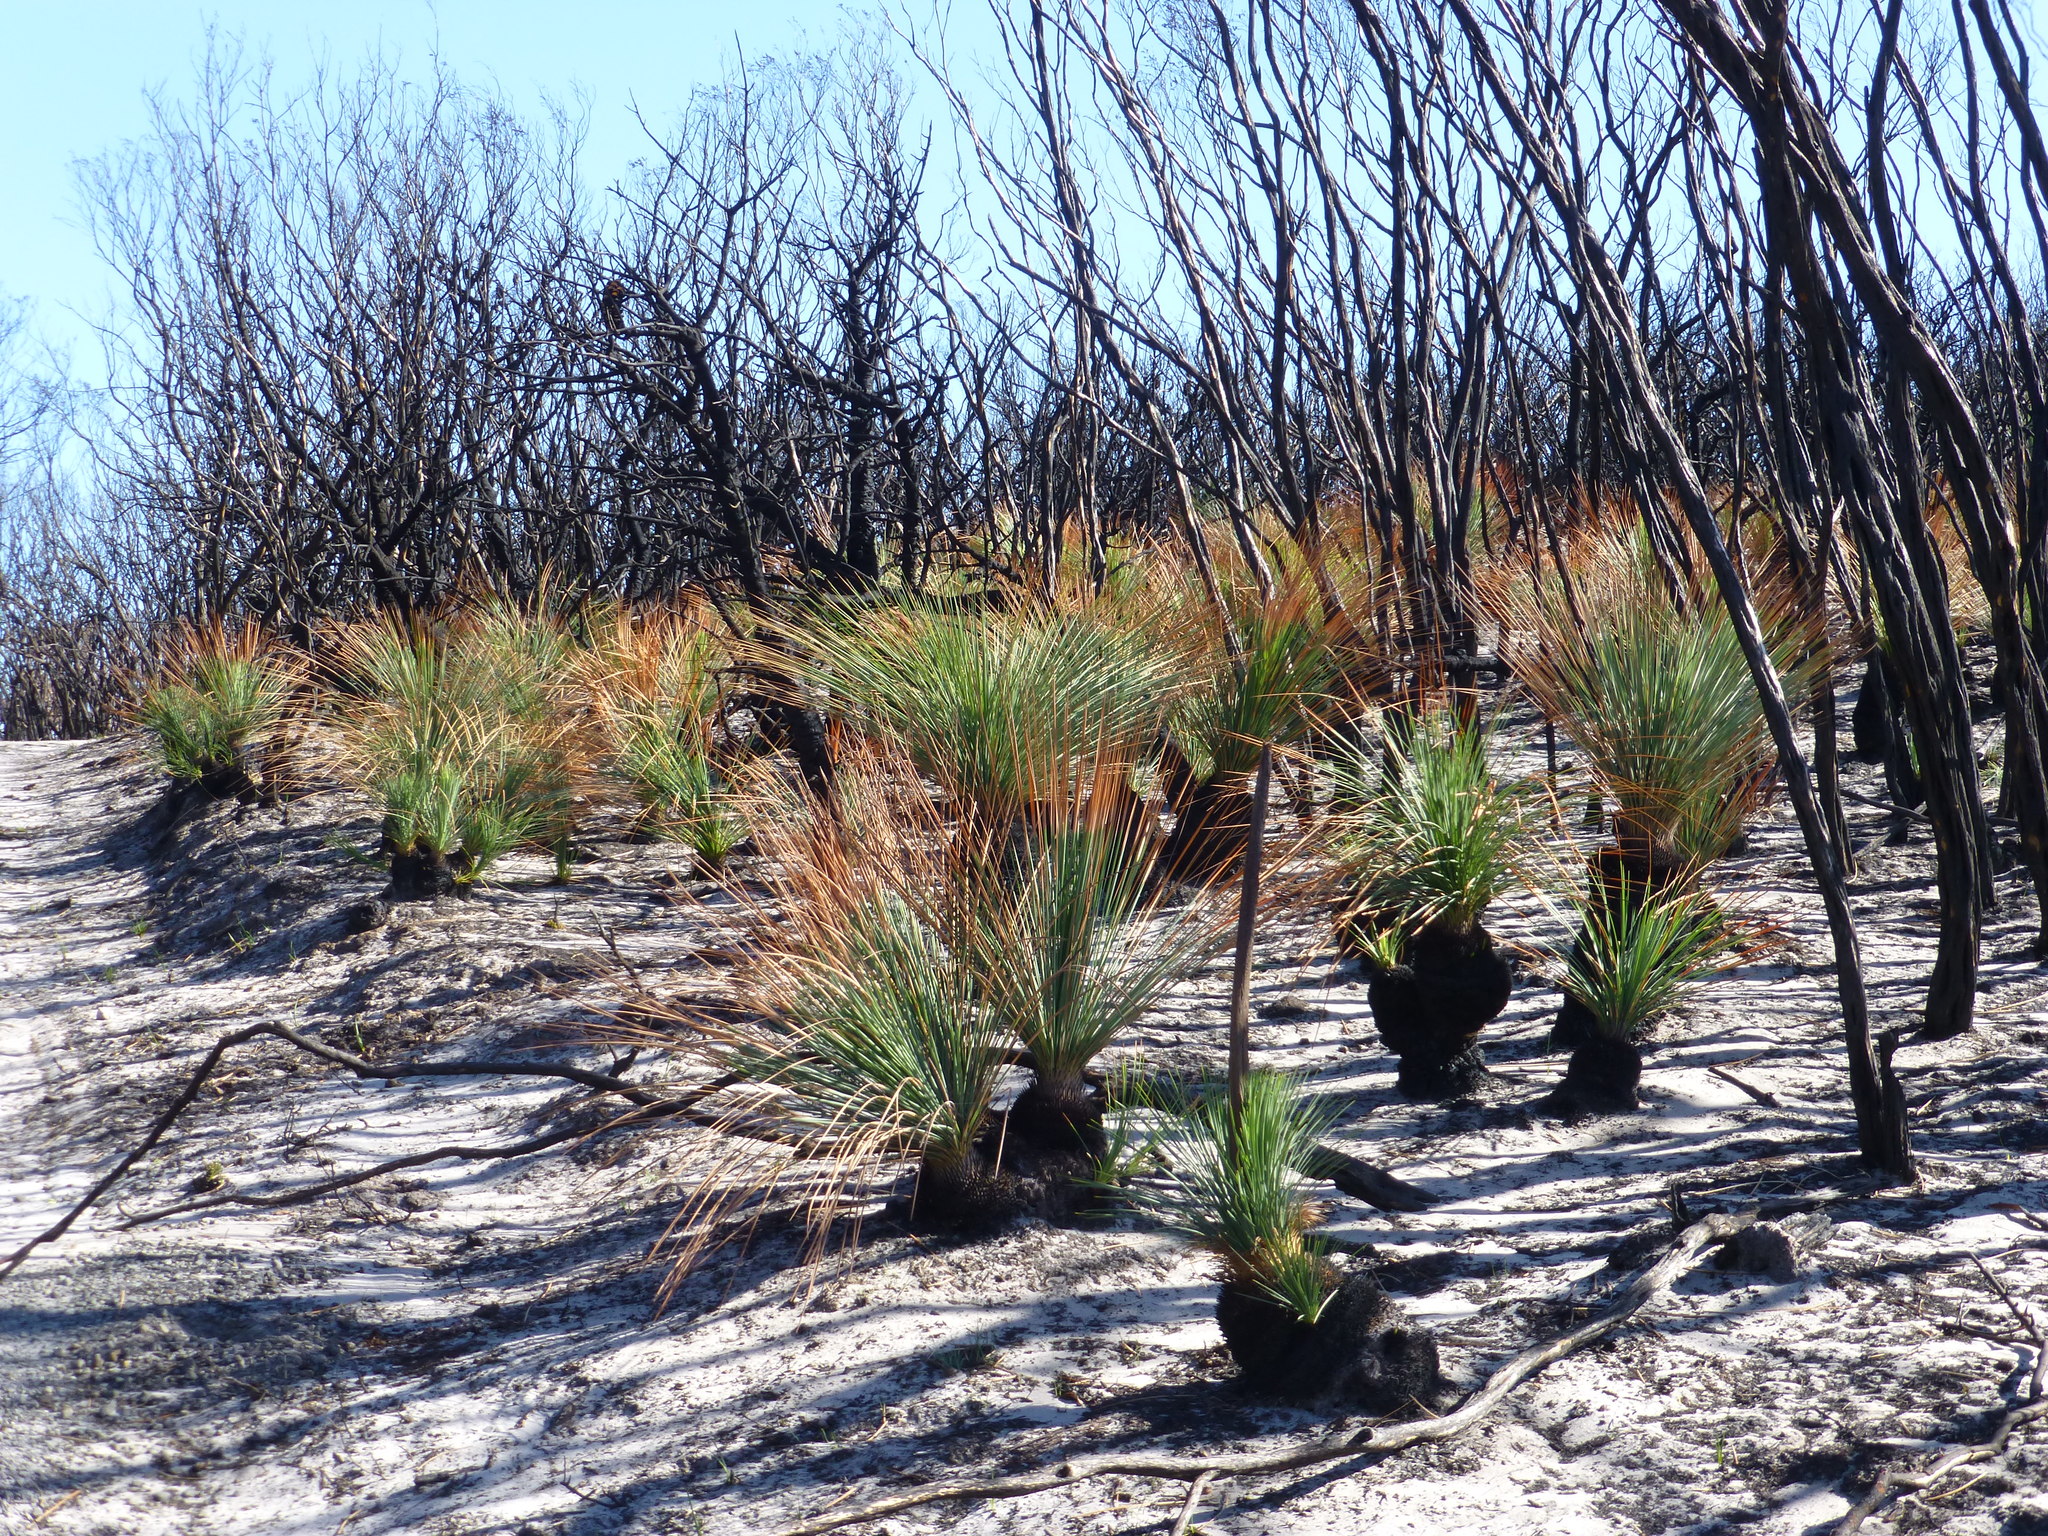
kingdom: Plantae
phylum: Tracheophyta
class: Liliopsida
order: Asparagales
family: Asphodelaceae
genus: Xanthorrhoea
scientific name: Xanthorrhoea resinosa
